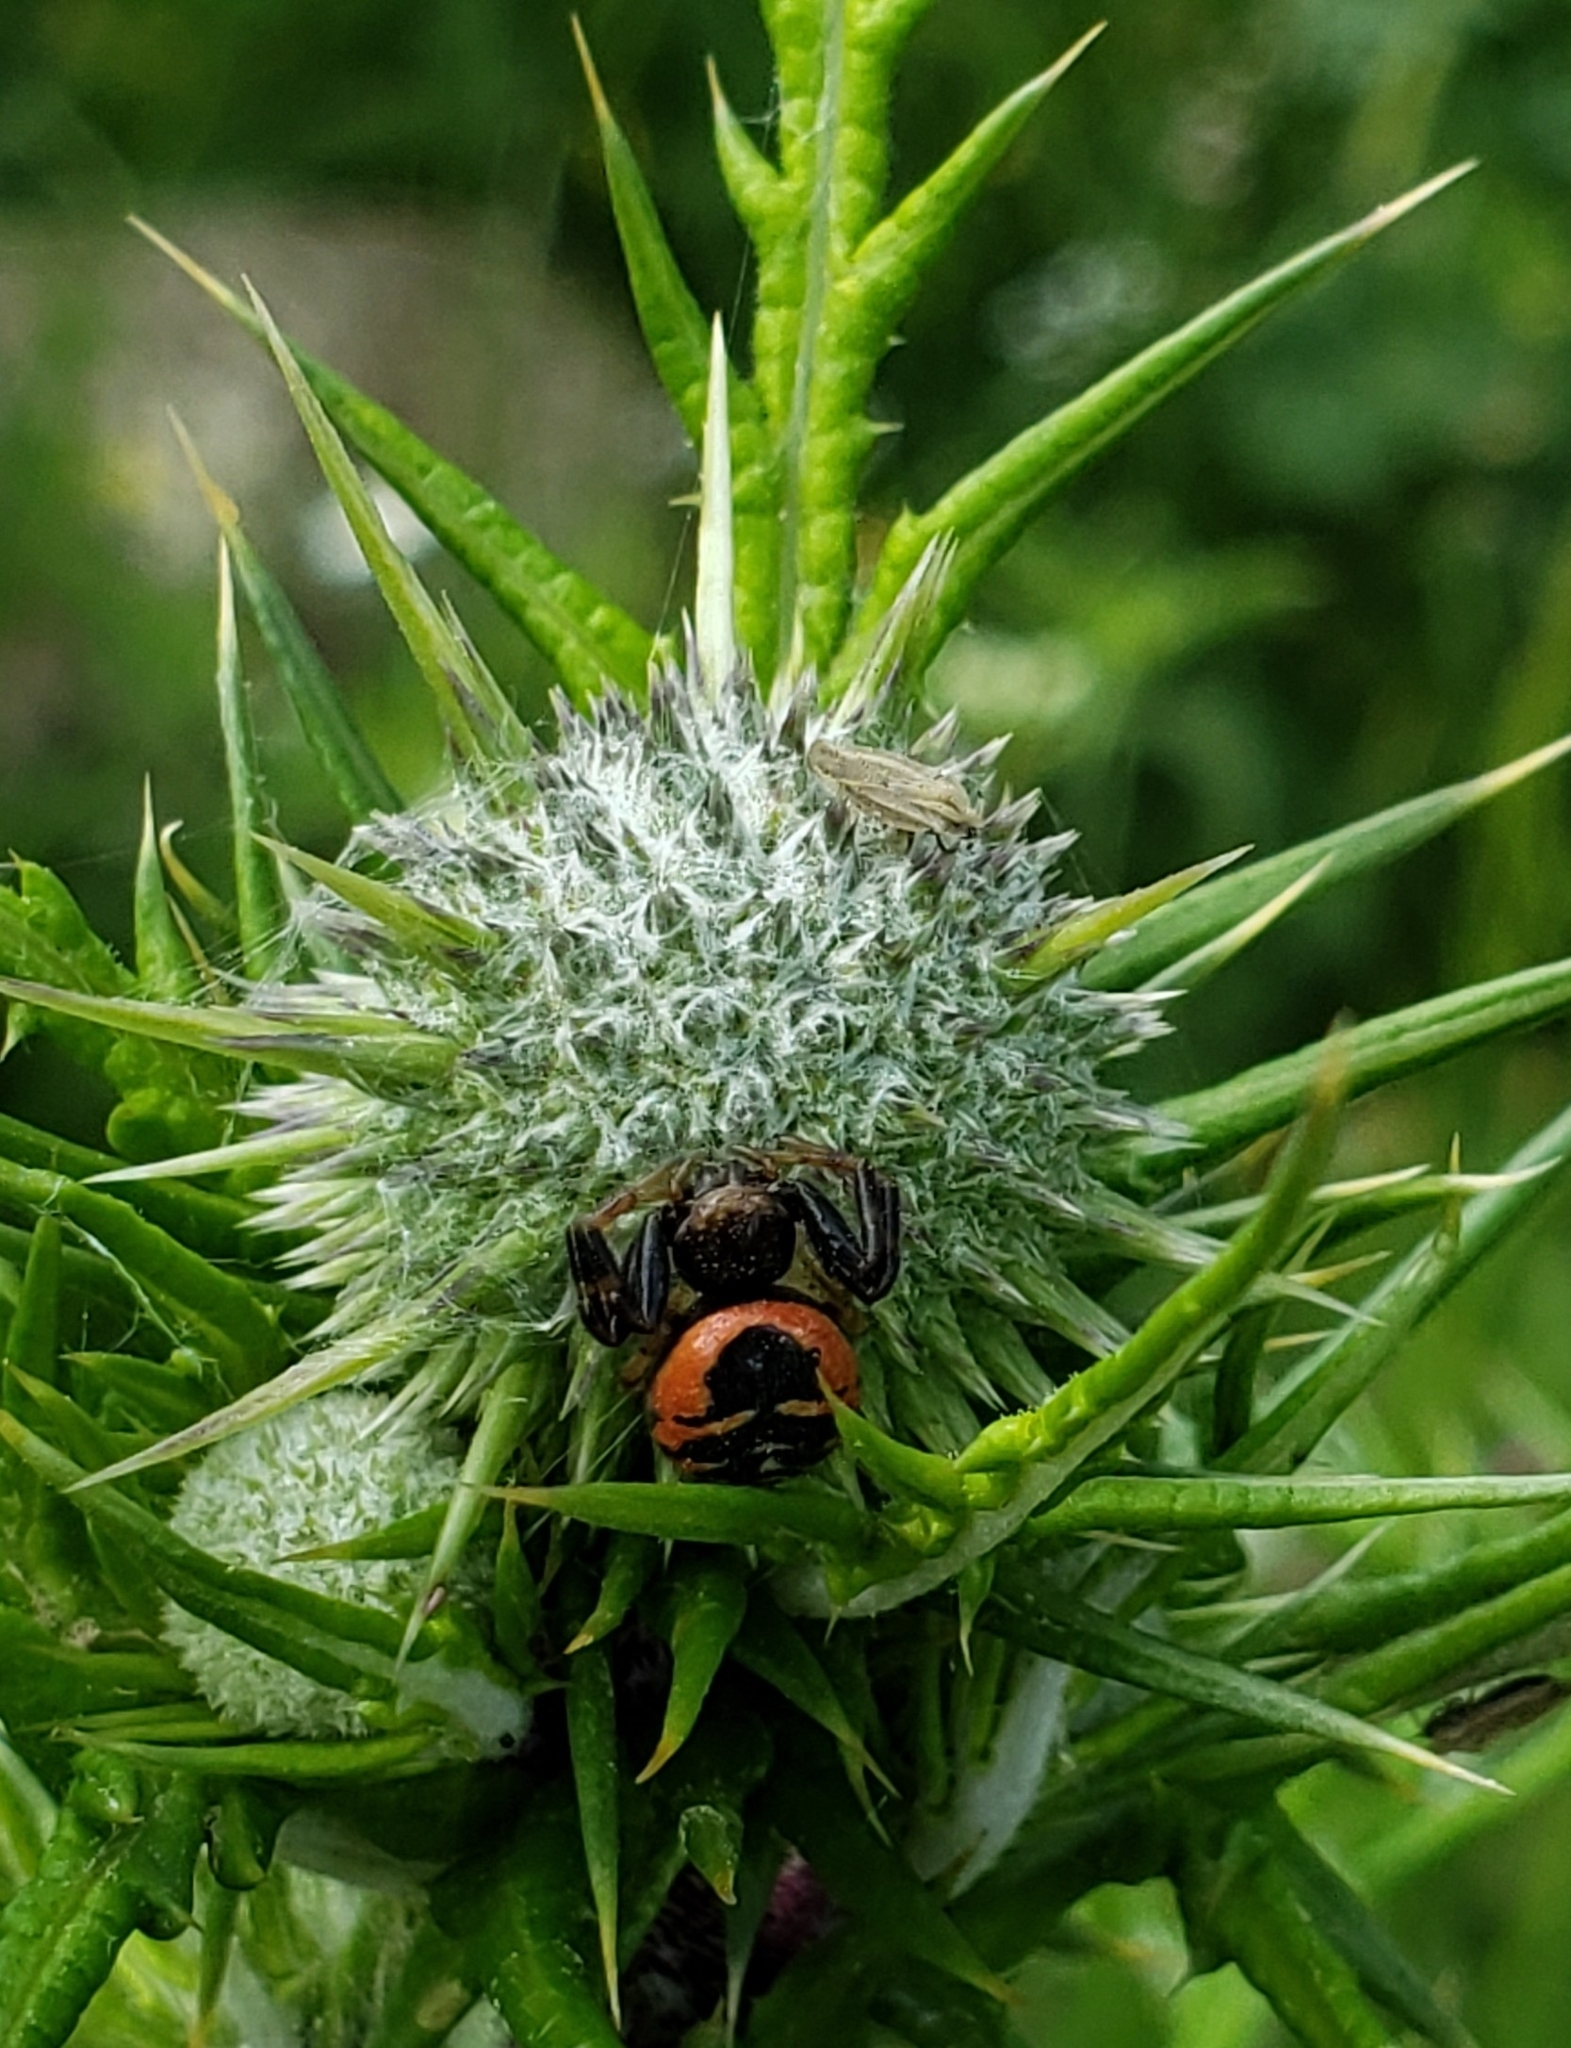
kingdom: Animalia
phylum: Arthropoda
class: Arachnida
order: Araneae
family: Thomisidae
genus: Synema
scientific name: Synema globosum
